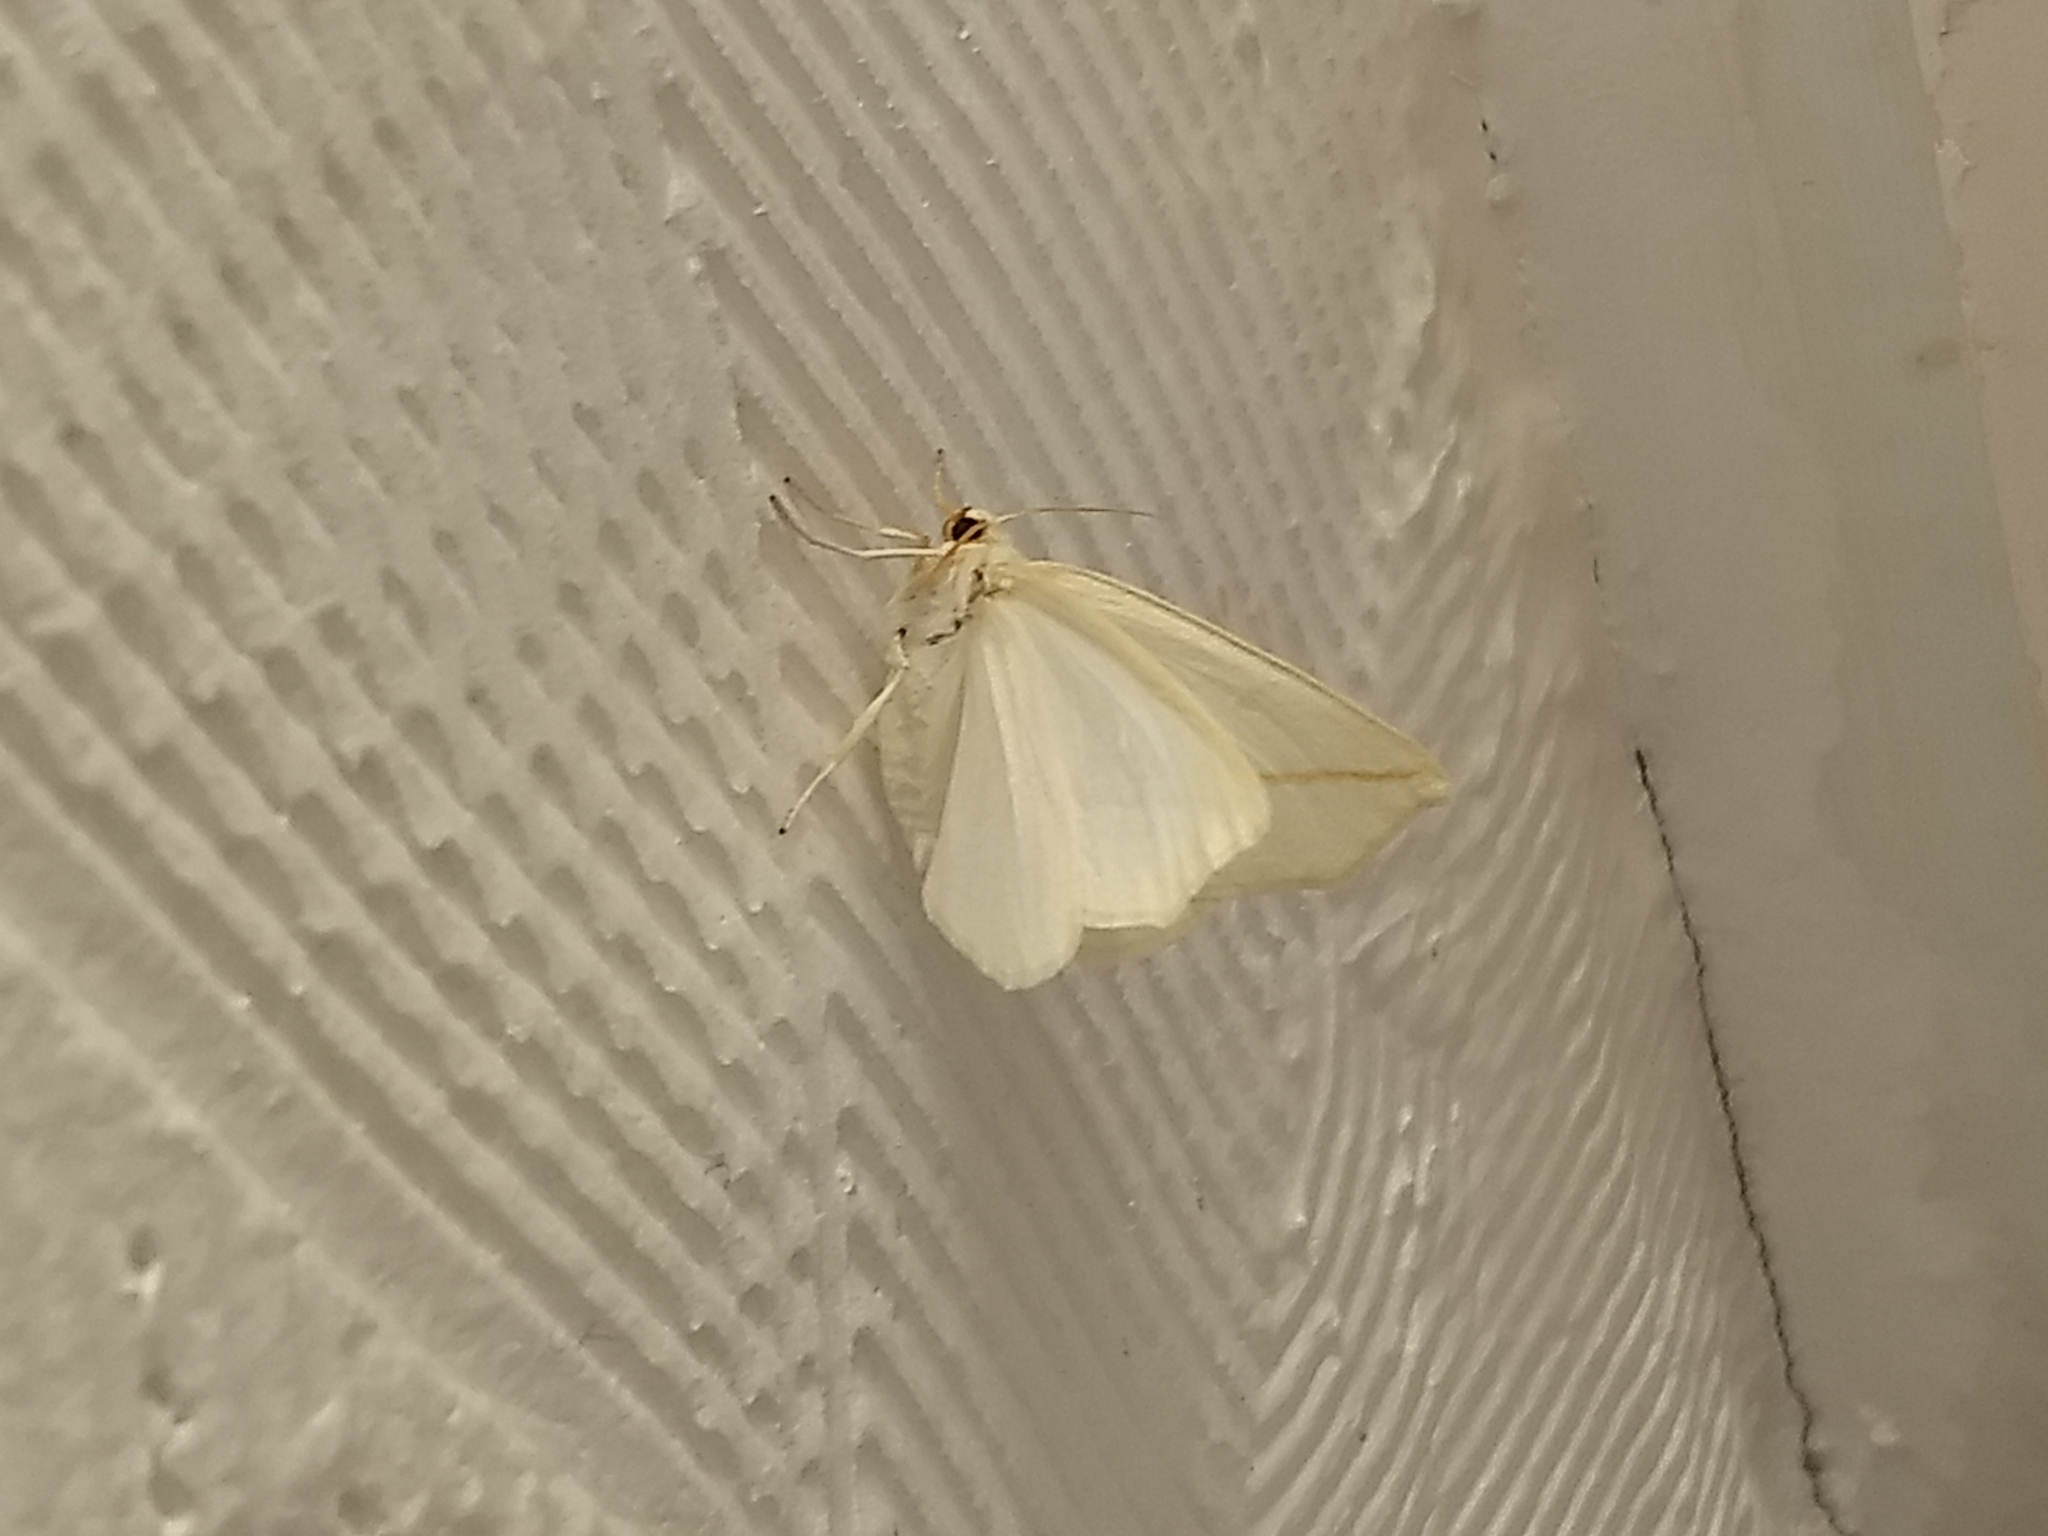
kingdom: Animalia
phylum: Arthropoda
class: Insecta
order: Lepidoptera
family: Geometridae
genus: Tetracis
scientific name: Tetracis cachexiata
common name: White slant-line
